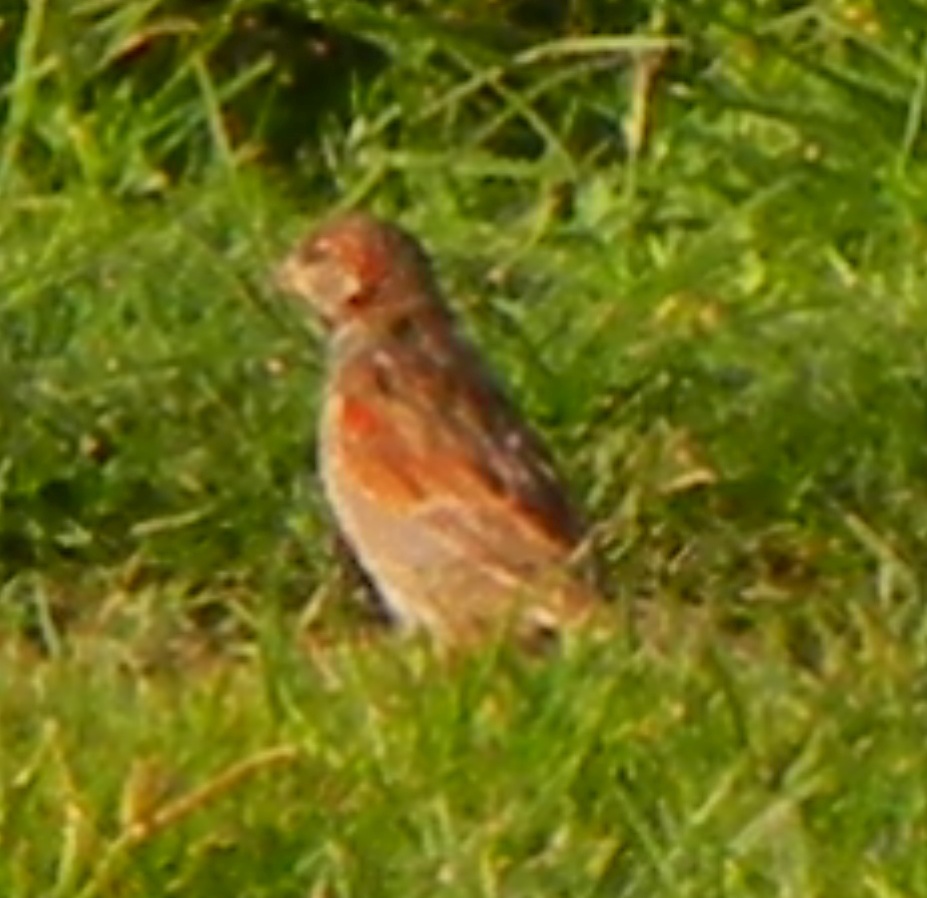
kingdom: Animalia
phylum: Chordata
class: Aves
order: Passeriformes
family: Passeridae
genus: Passer
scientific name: Passer domesticus
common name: House sparrow
